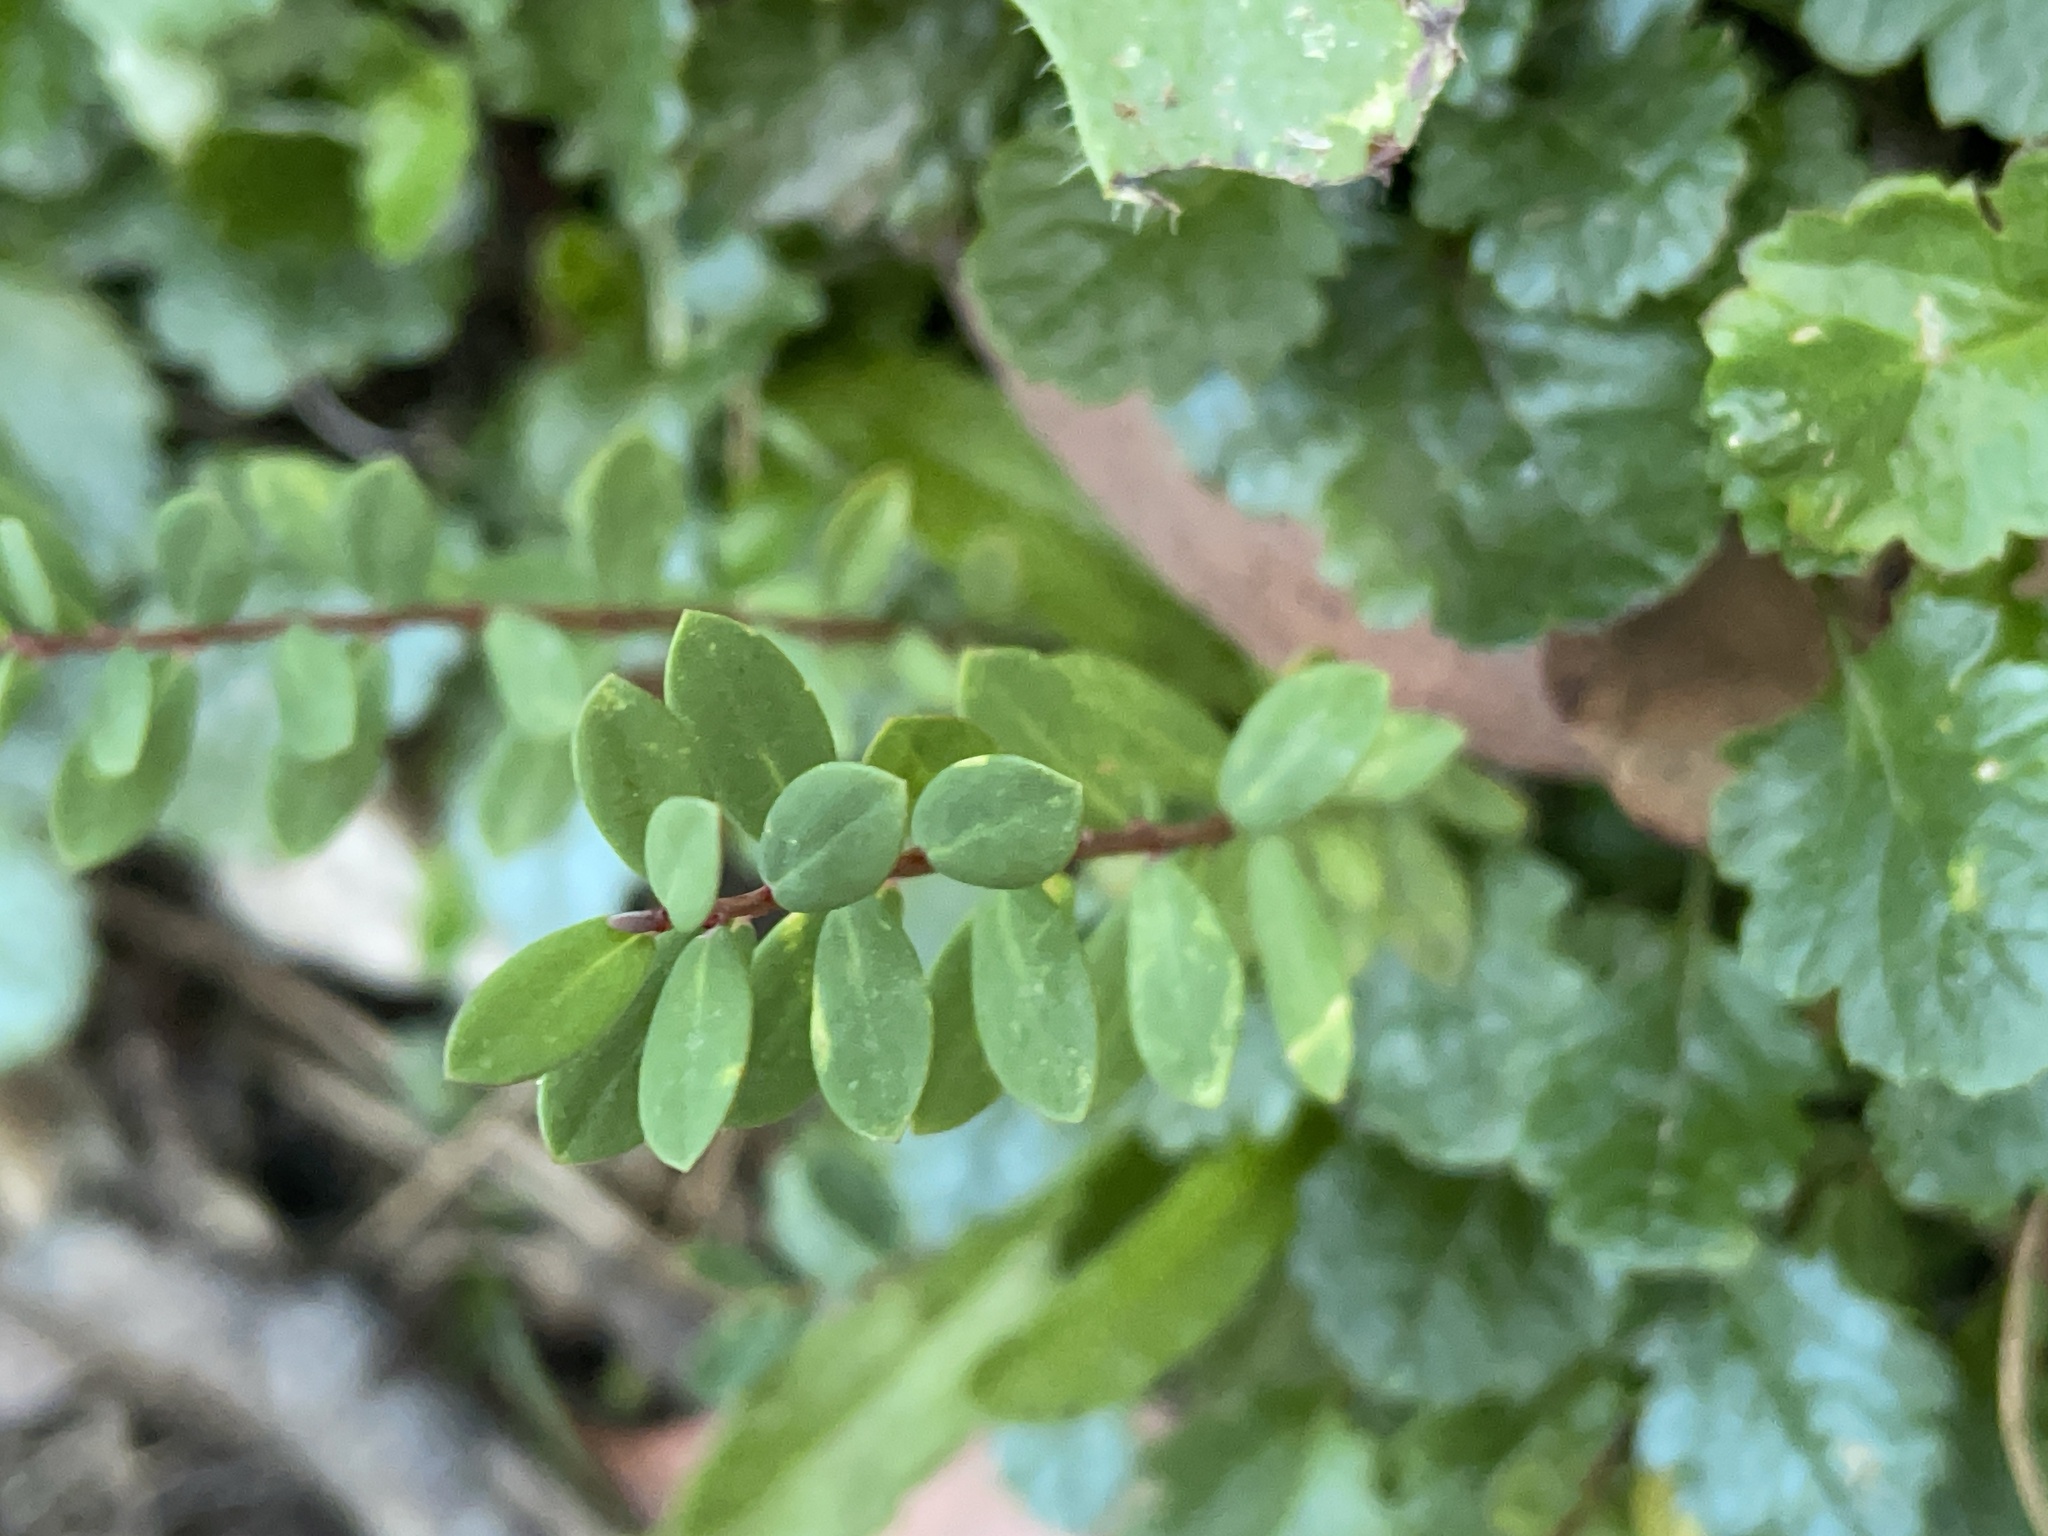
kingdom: Plantae
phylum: Tracheophyta
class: Magnoliopsida
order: Malvales
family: Thymelaeaceae
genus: Pimelea
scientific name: Pimelea axiflora
